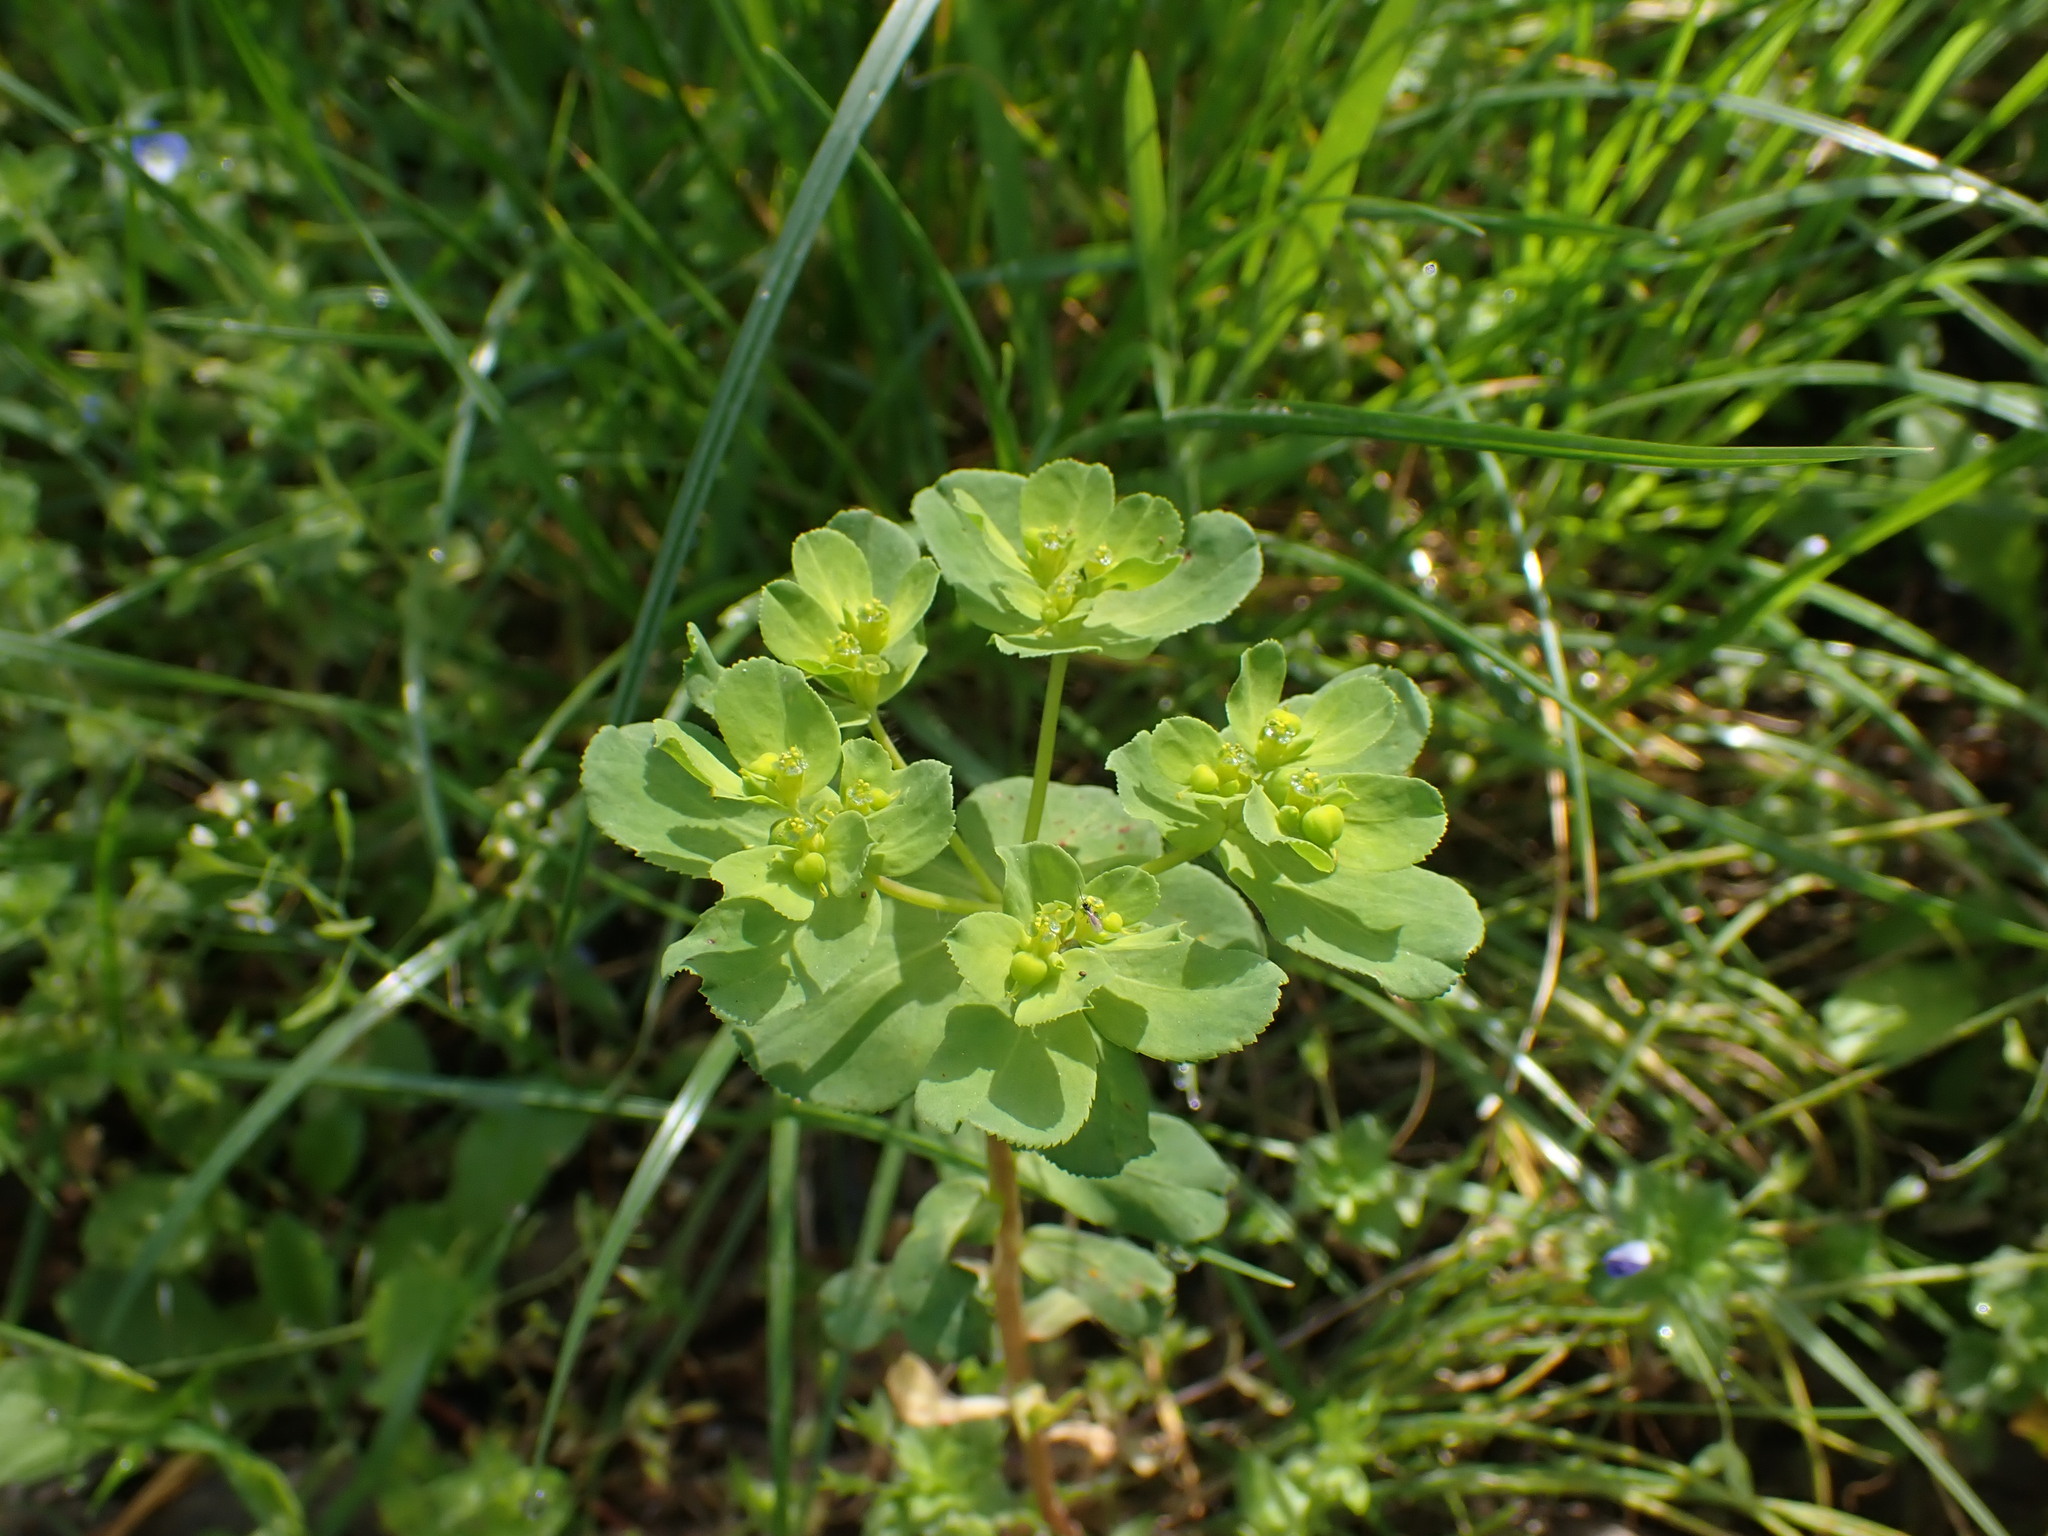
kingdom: Plantae
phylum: Tracheophyta
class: Magnoliopsida
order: Malpighiales
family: Euphorbiaceae
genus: Euphorbia
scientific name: Euphorbia helioscopia
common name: Sun spurge
